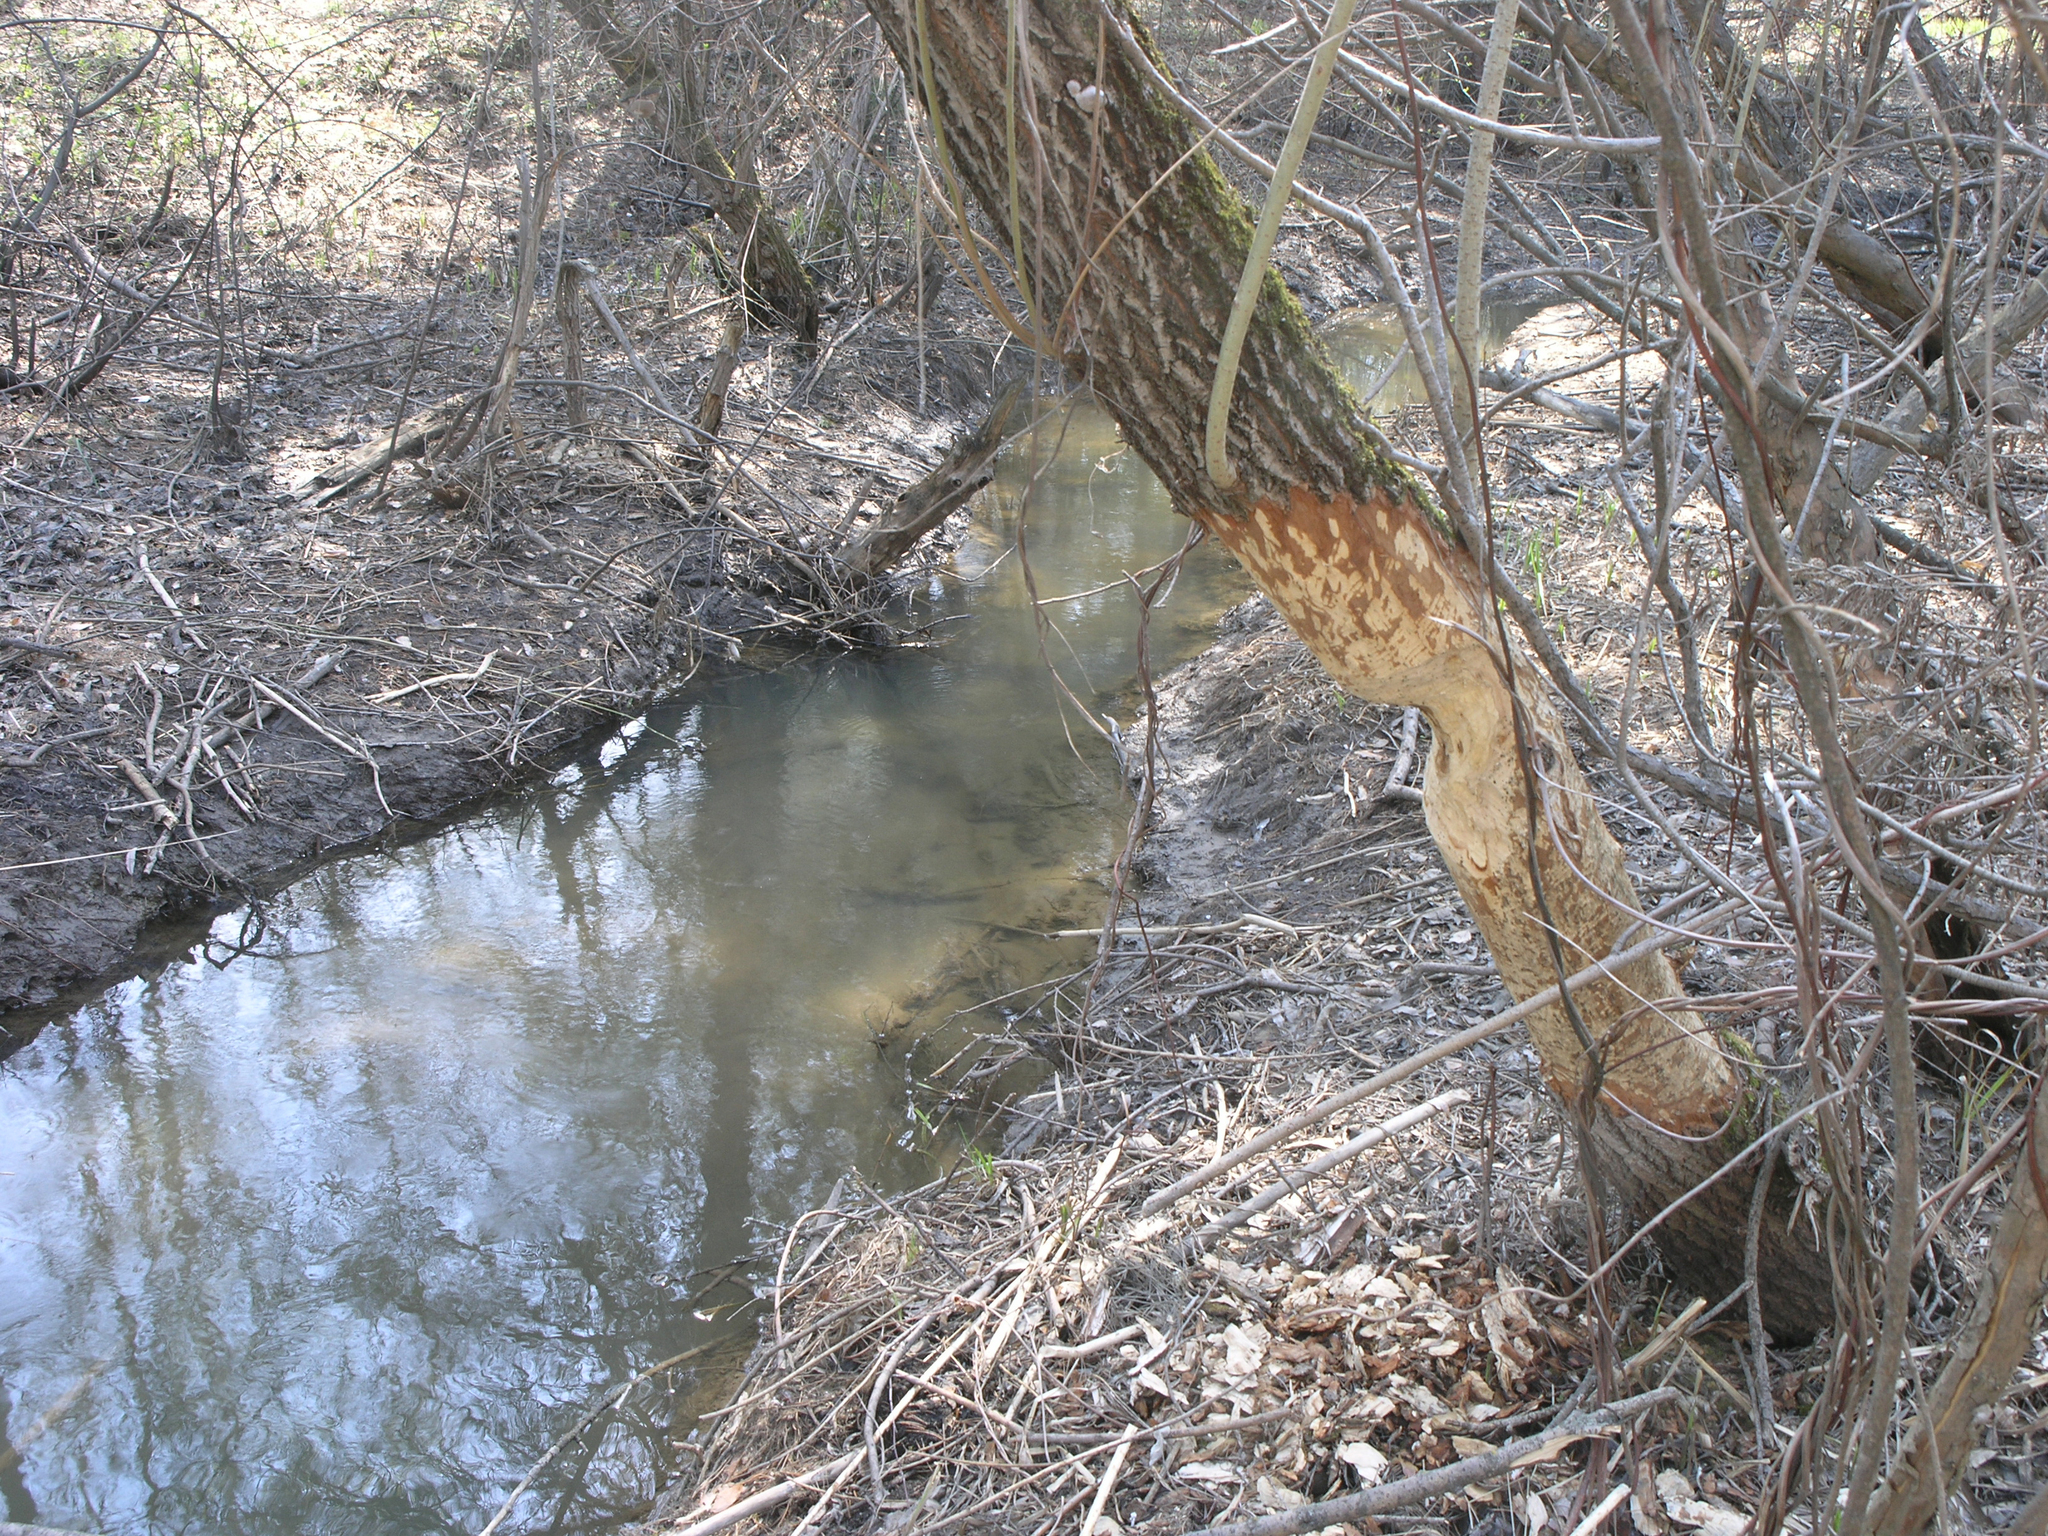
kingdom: Animalia
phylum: Chordata
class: Mammalia
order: Rodentia
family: Castoridae
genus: Castor
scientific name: Castor fiber
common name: Eurasian beaver
